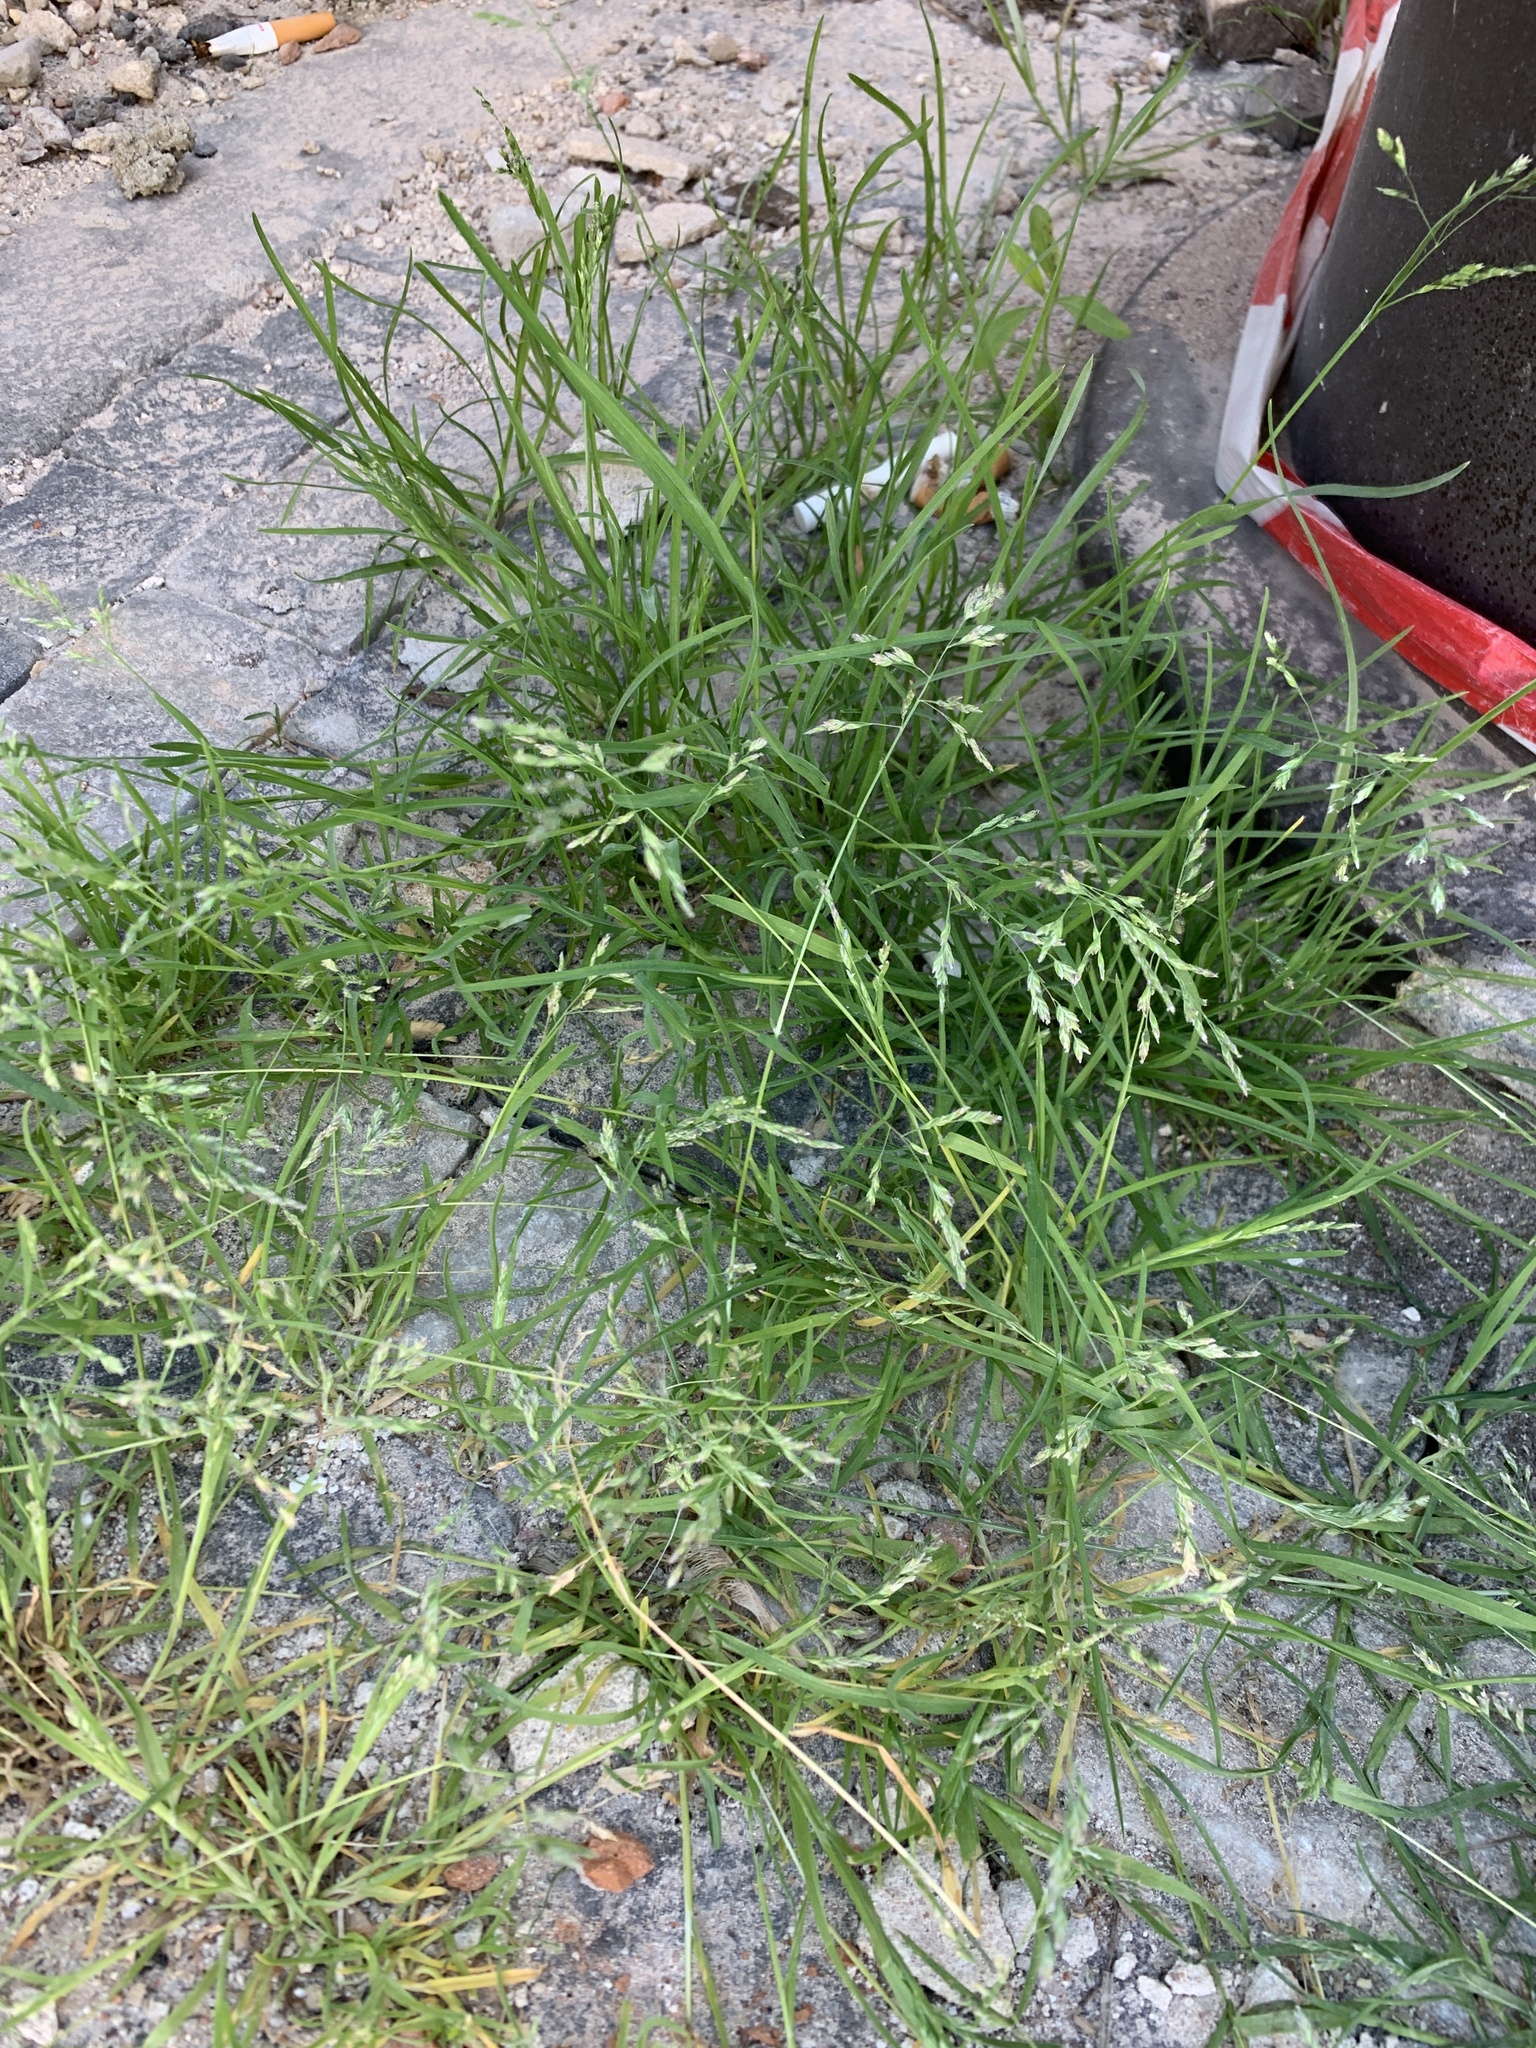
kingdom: Plantae
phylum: Tracheophyta
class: Liliopsida
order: Poales
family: Poaceae
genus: Poa
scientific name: Poa annua
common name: Annual bluegrass
